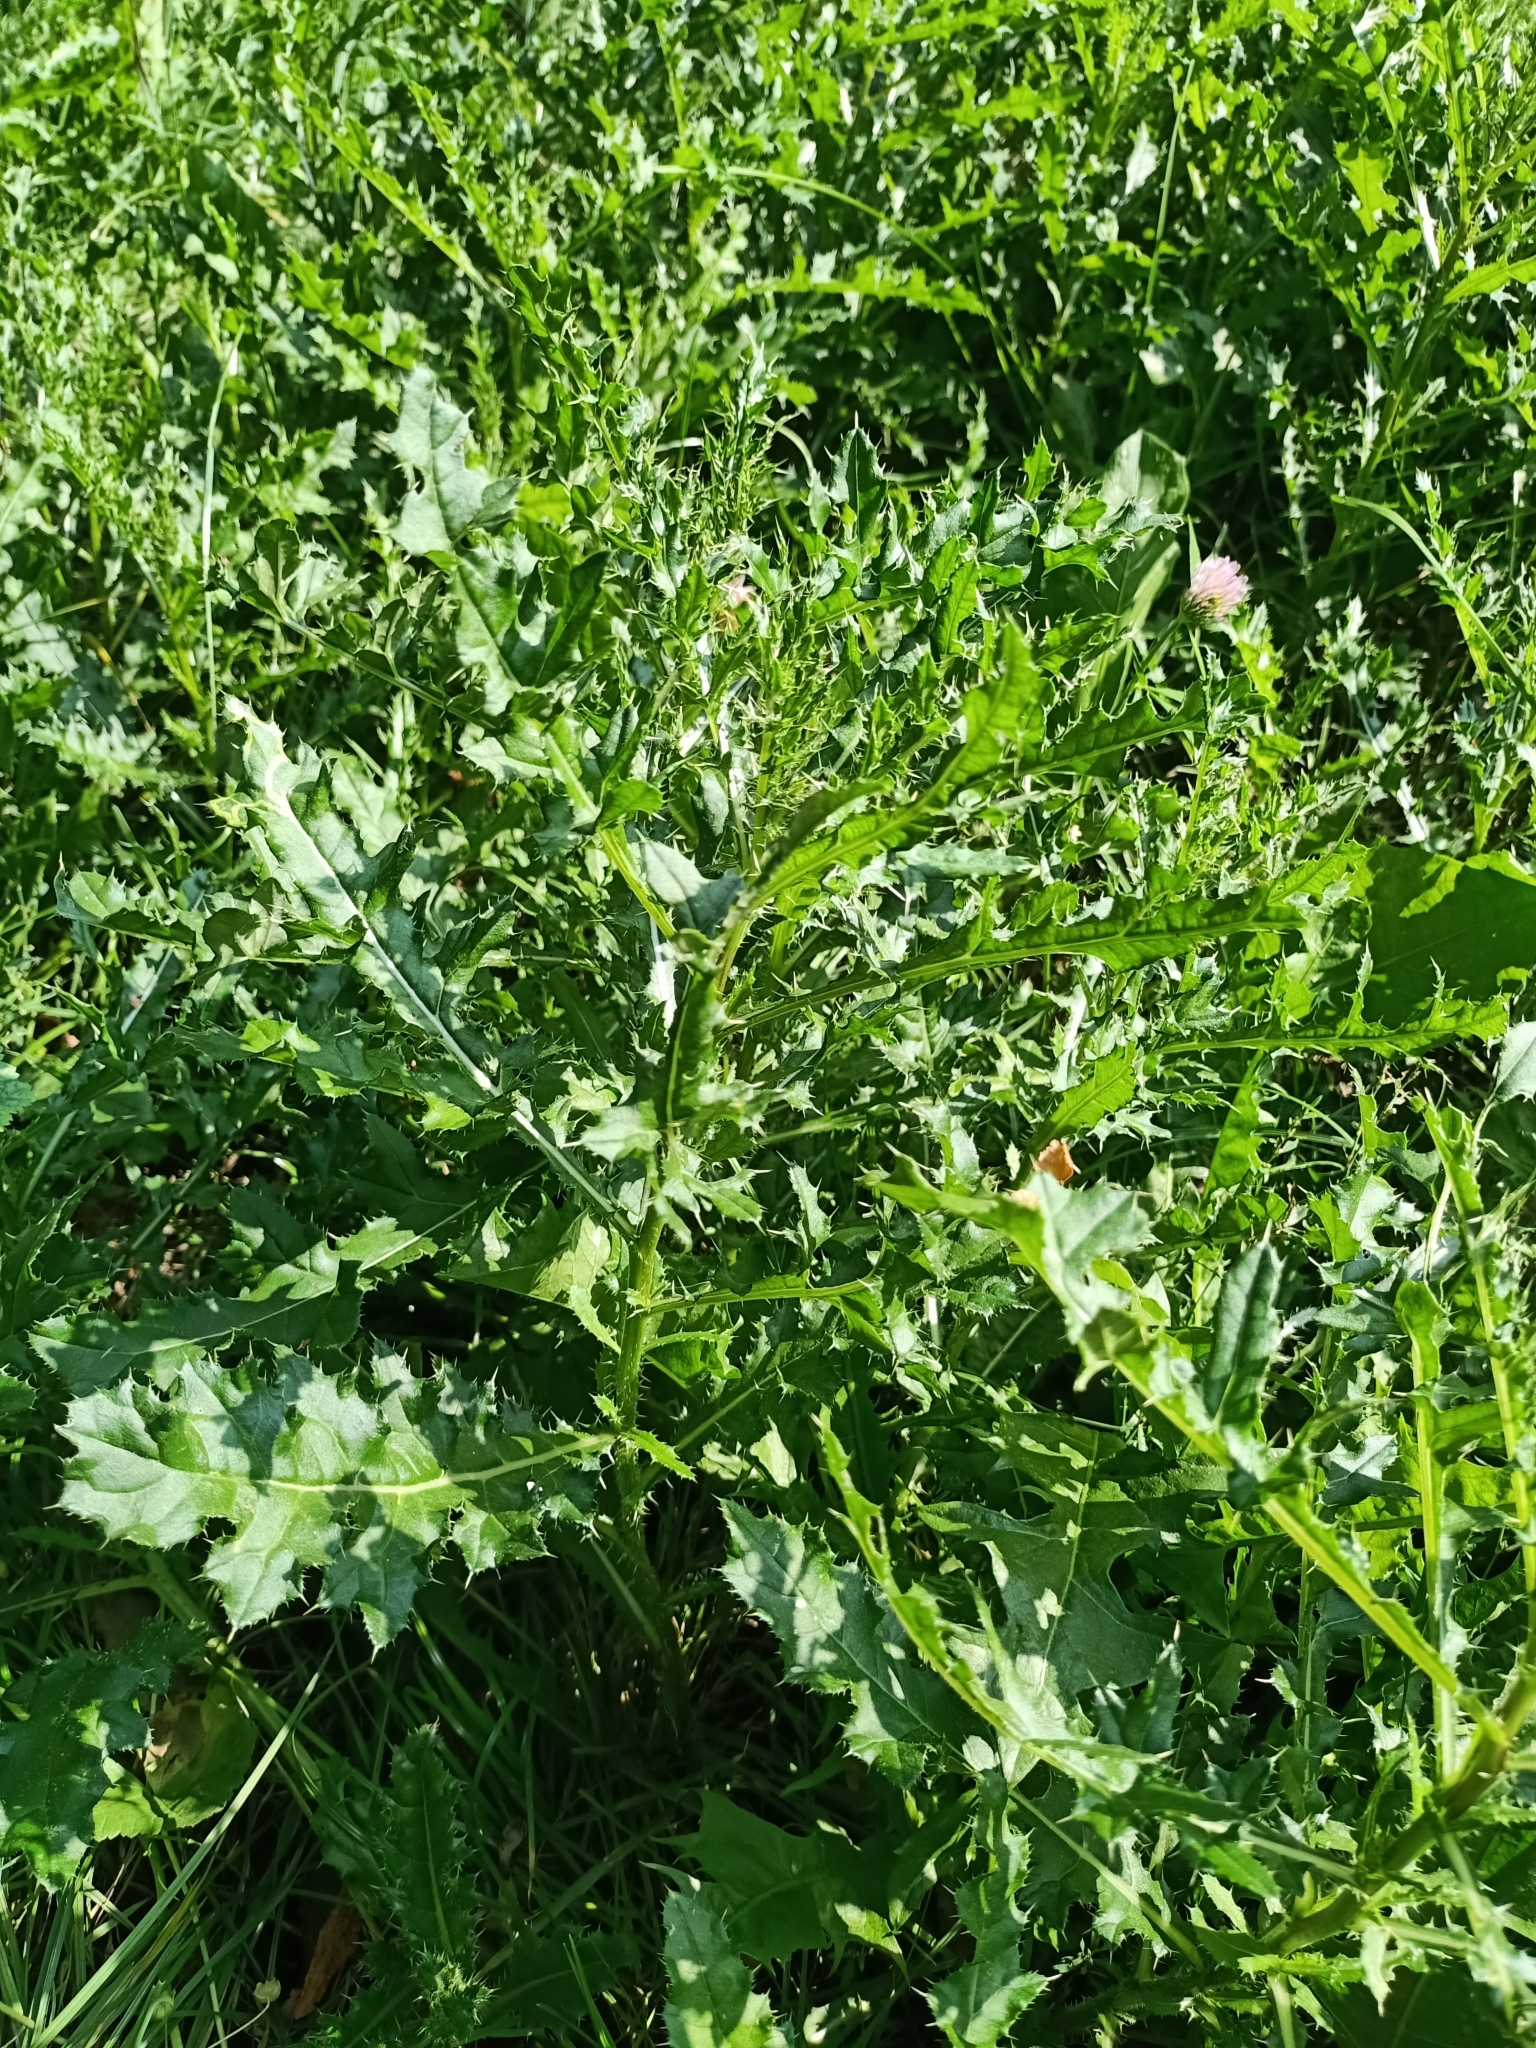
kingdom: Plantae
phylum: Tracheophyta
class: Magnoliopsida
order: Asterales
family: Asteraceae
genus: Cirsium
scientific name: Cirsium arvense
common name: Creeping thistle
